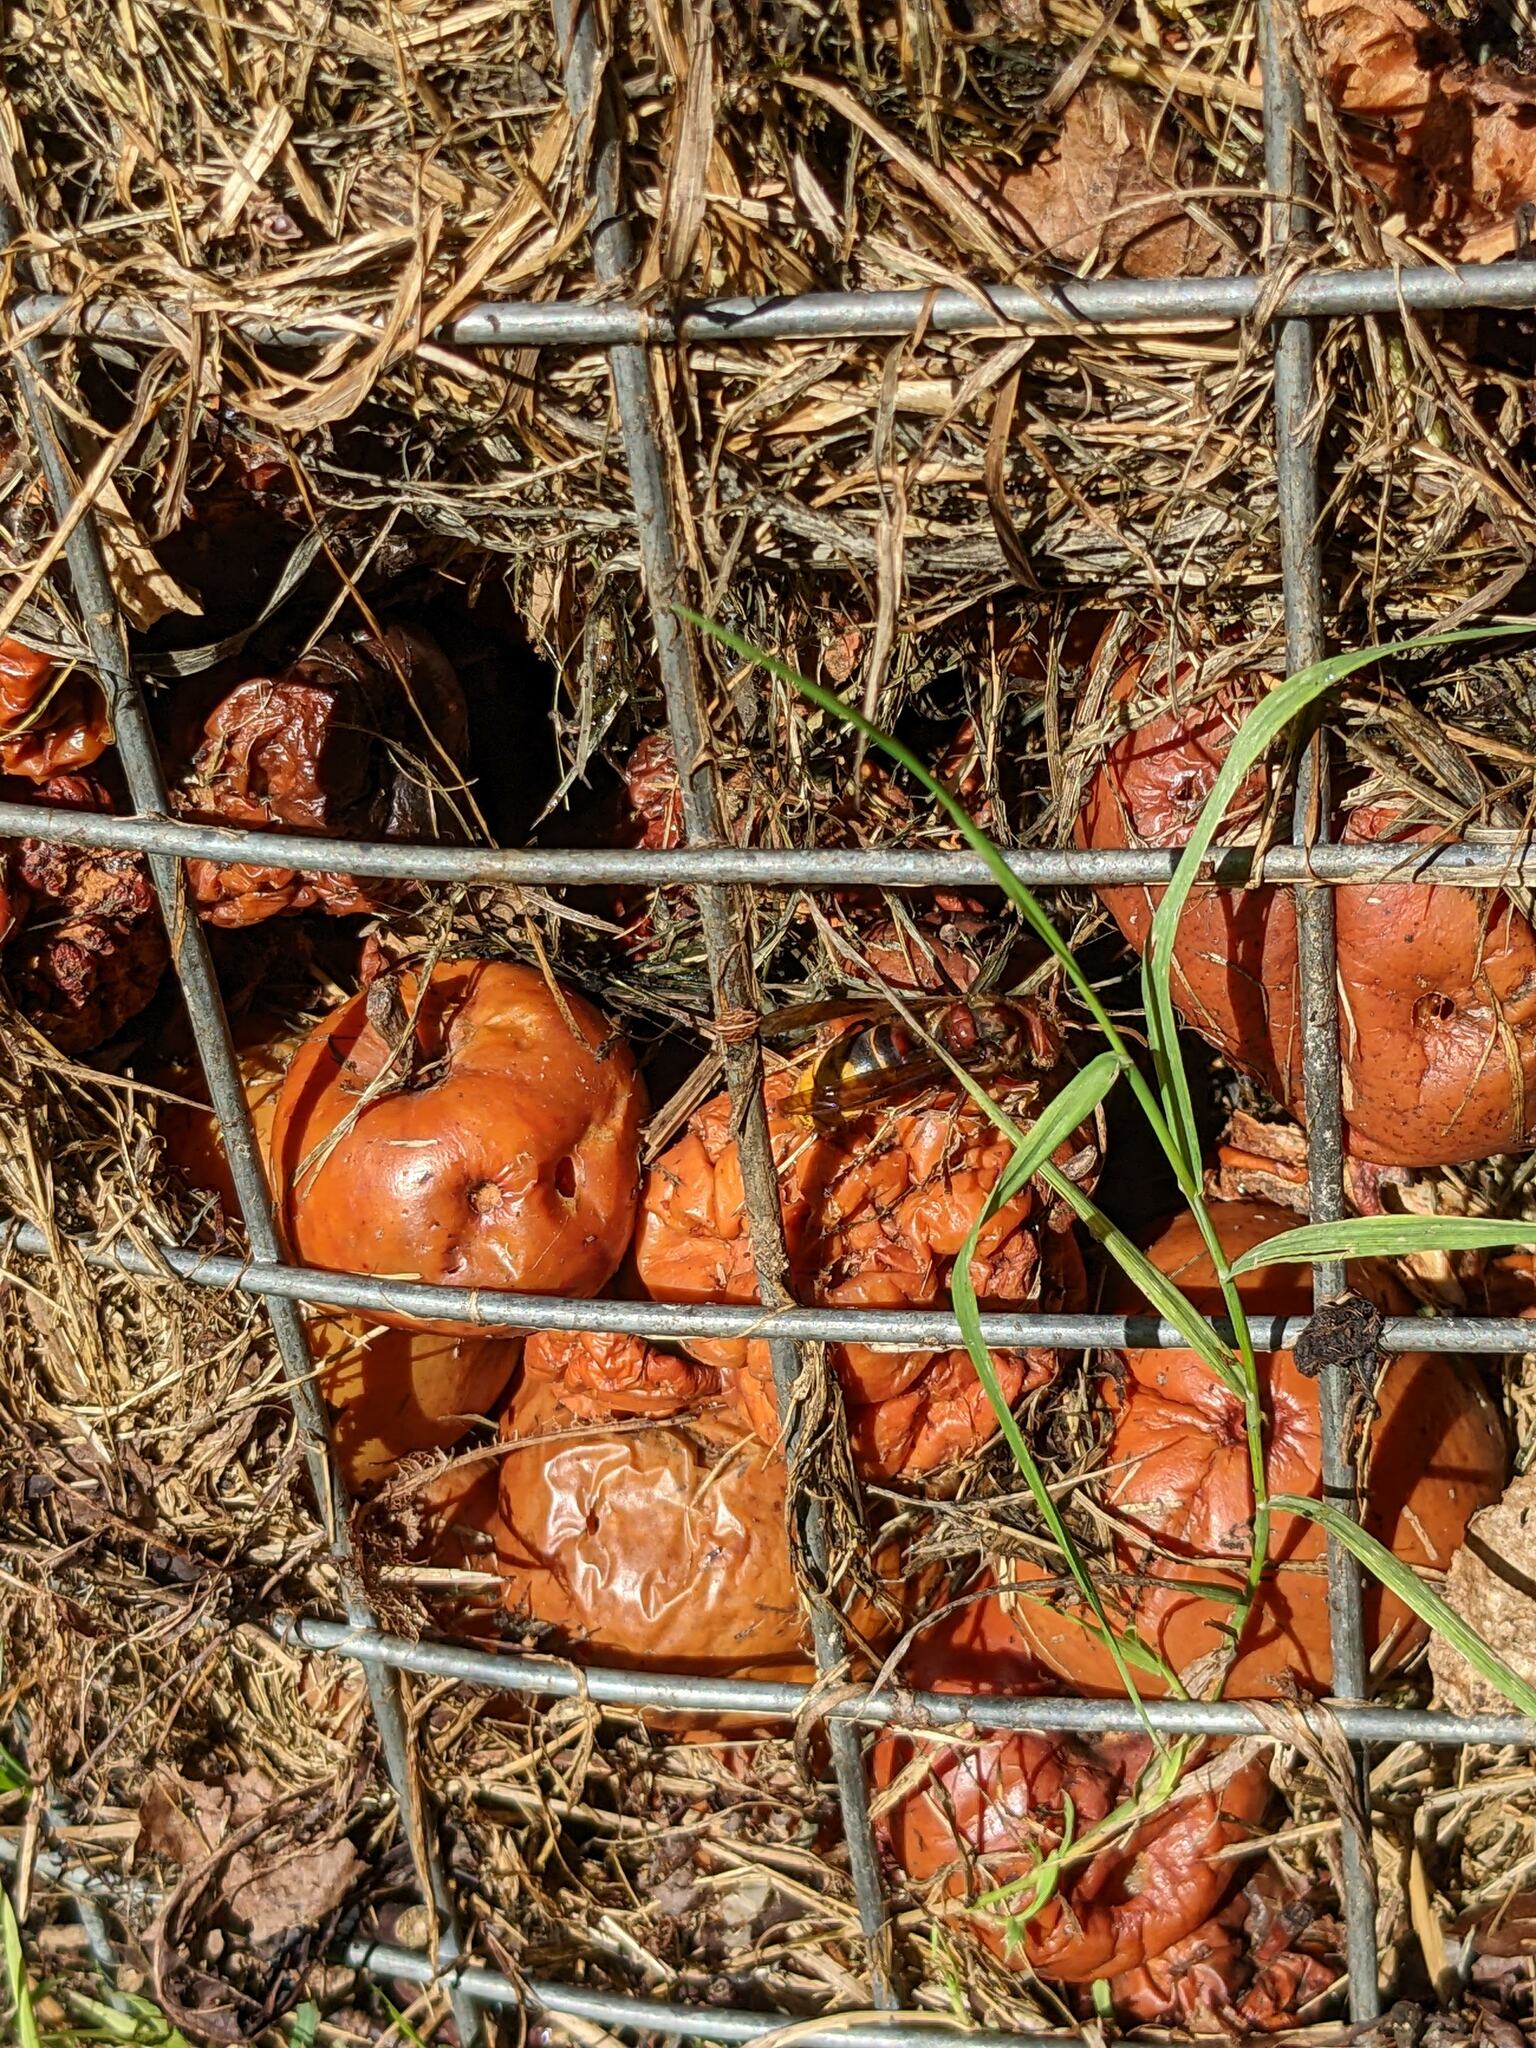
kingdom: Animalia
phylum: Arthropoda
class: Insecta
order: Hymenoptera
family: Vespidae
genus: Vespa
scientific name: Vespa crabro
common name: Hornet
